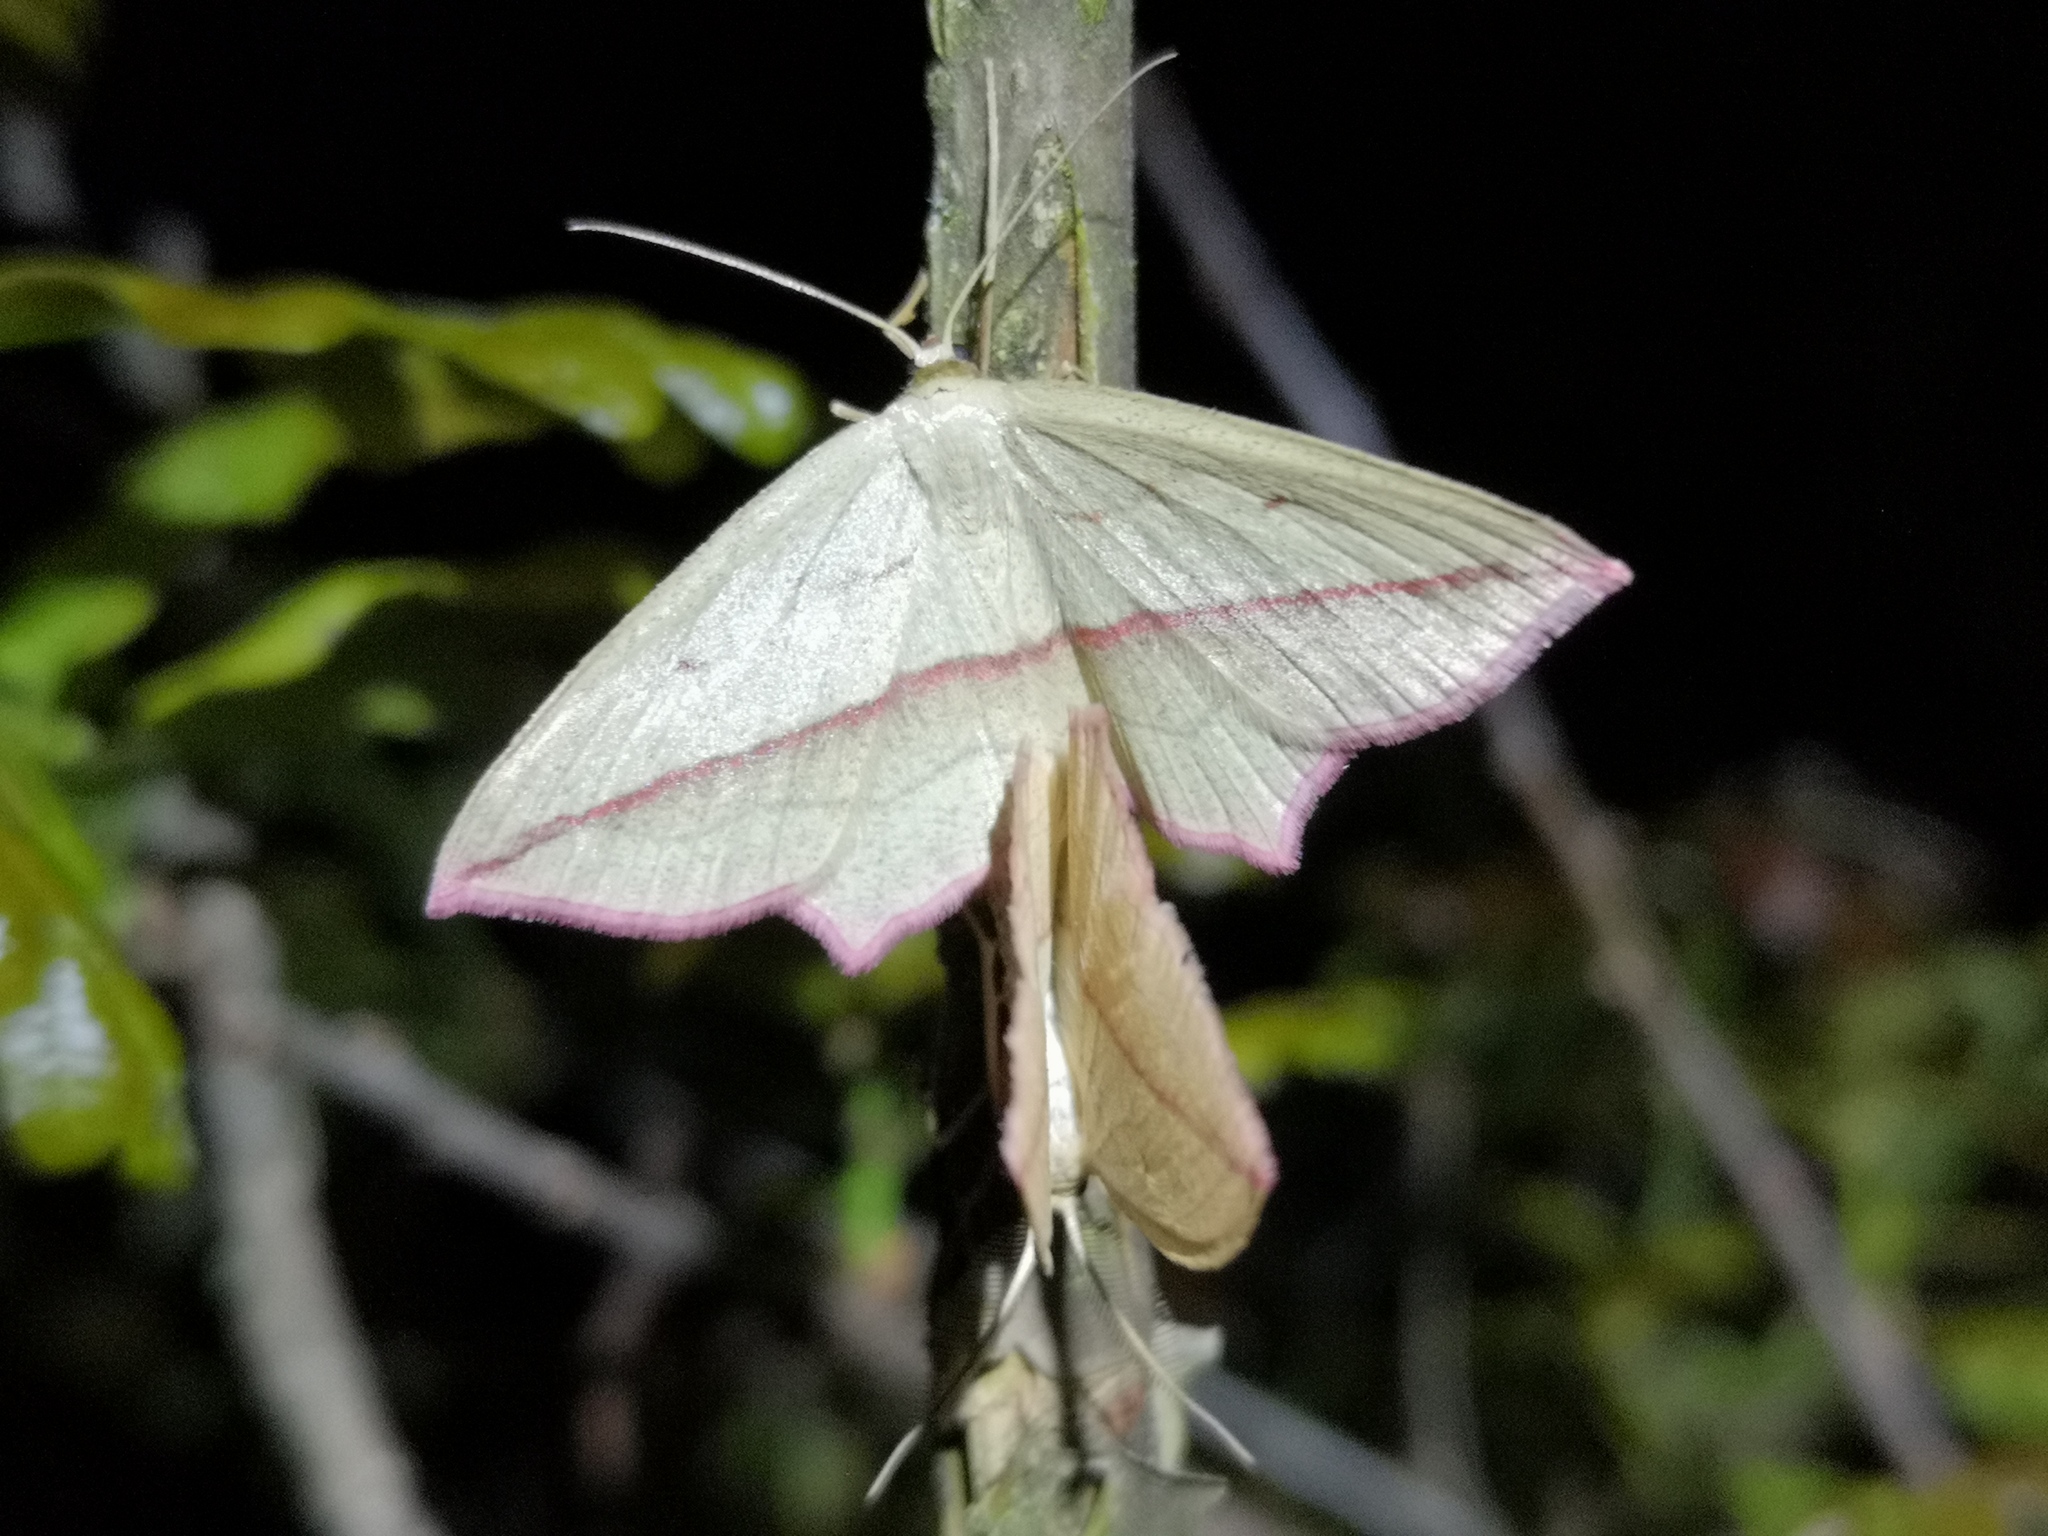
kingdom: Animalia
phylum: Arthropoda
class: Insecta
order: Lepidoptera
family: Geometridae
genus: Timandra
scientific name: Timandra comae
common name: Blood-vein
